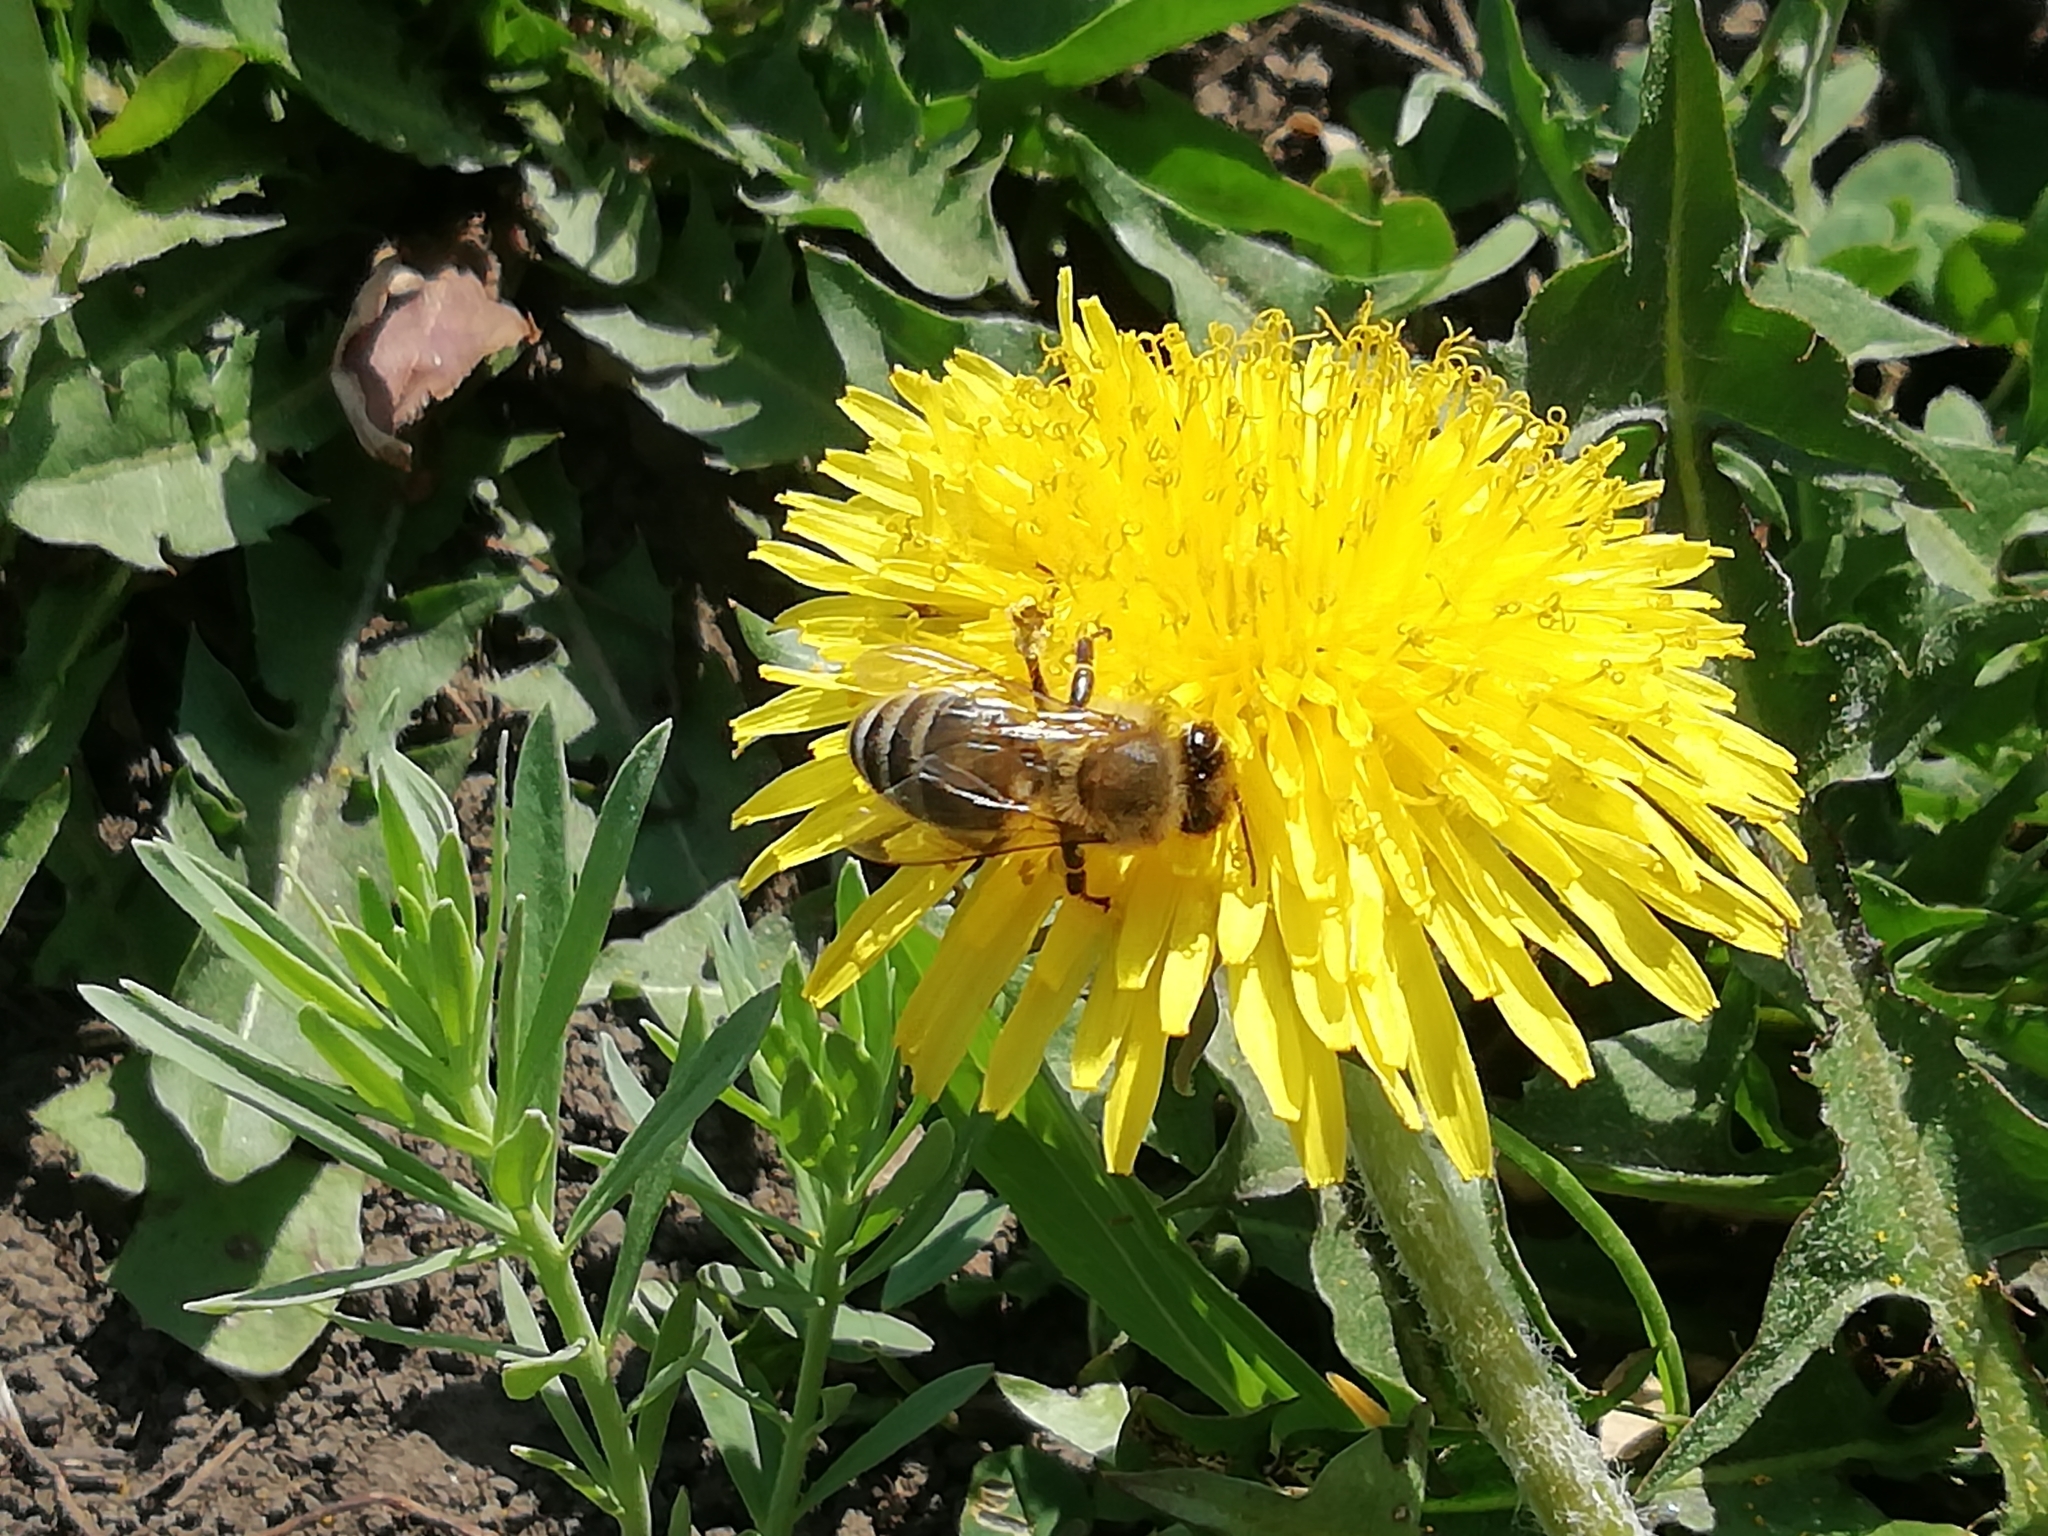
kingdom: Animalia
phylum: Arthropoda
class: Insecta
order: Hymenoptera
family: Apidae
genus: Apis
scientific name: Apis mellifera
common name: Honey bee
